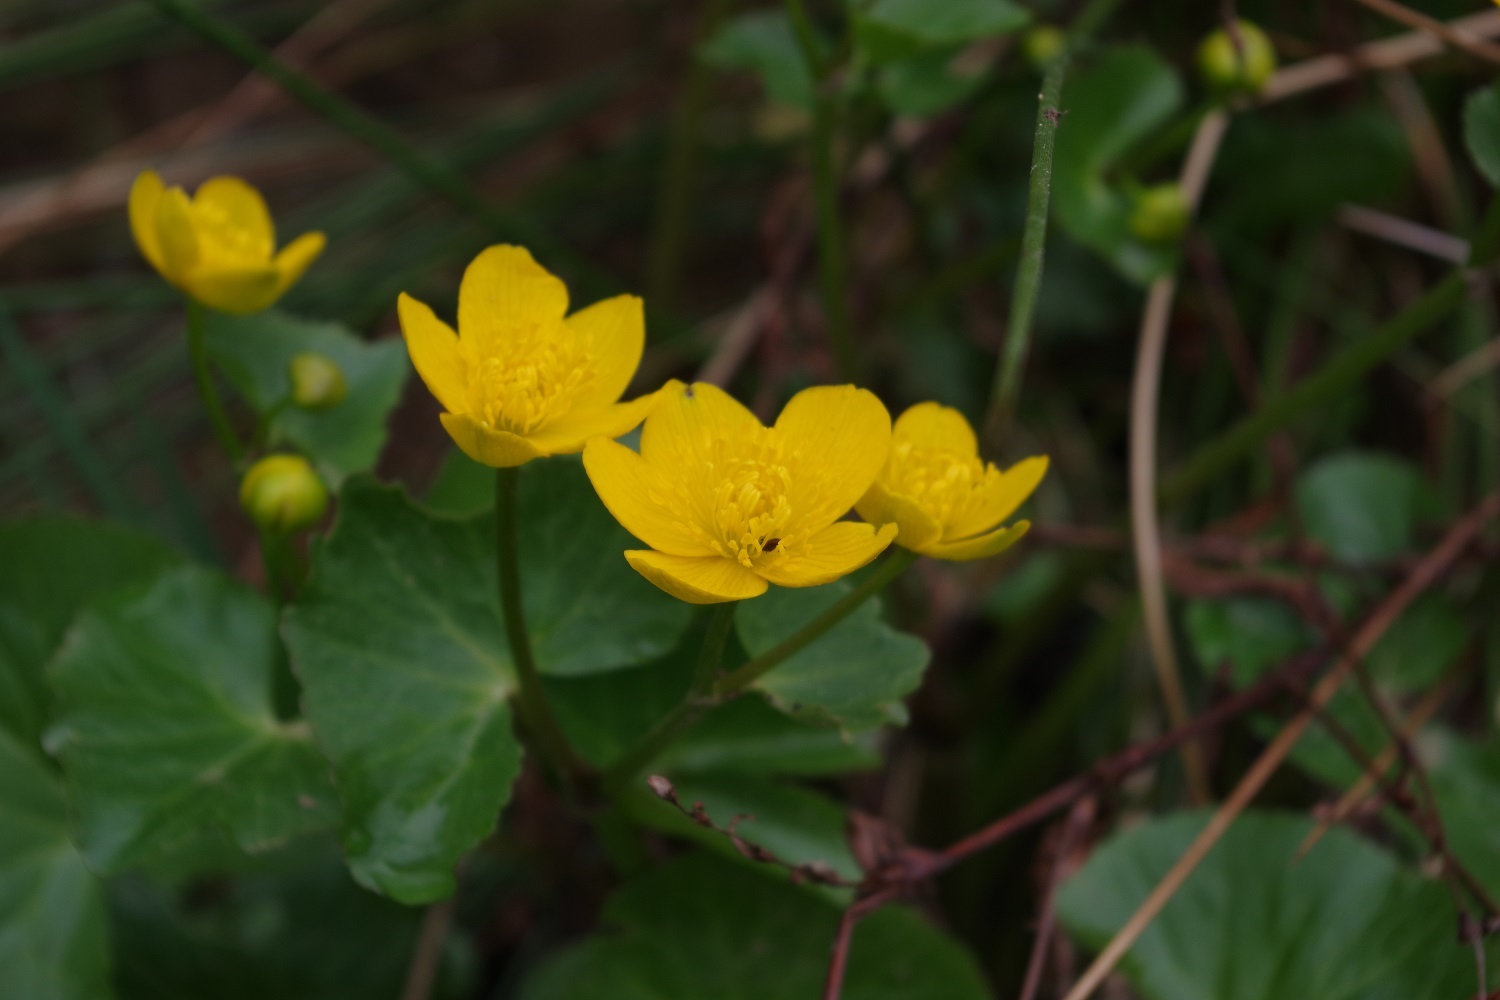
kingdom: Plantae
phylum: Tracheophyta
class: Magnoliopsida
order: Ranunculales
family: Ranunculaceae
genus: Caltha
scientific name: Caltha palustris
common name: Marsh marigold
